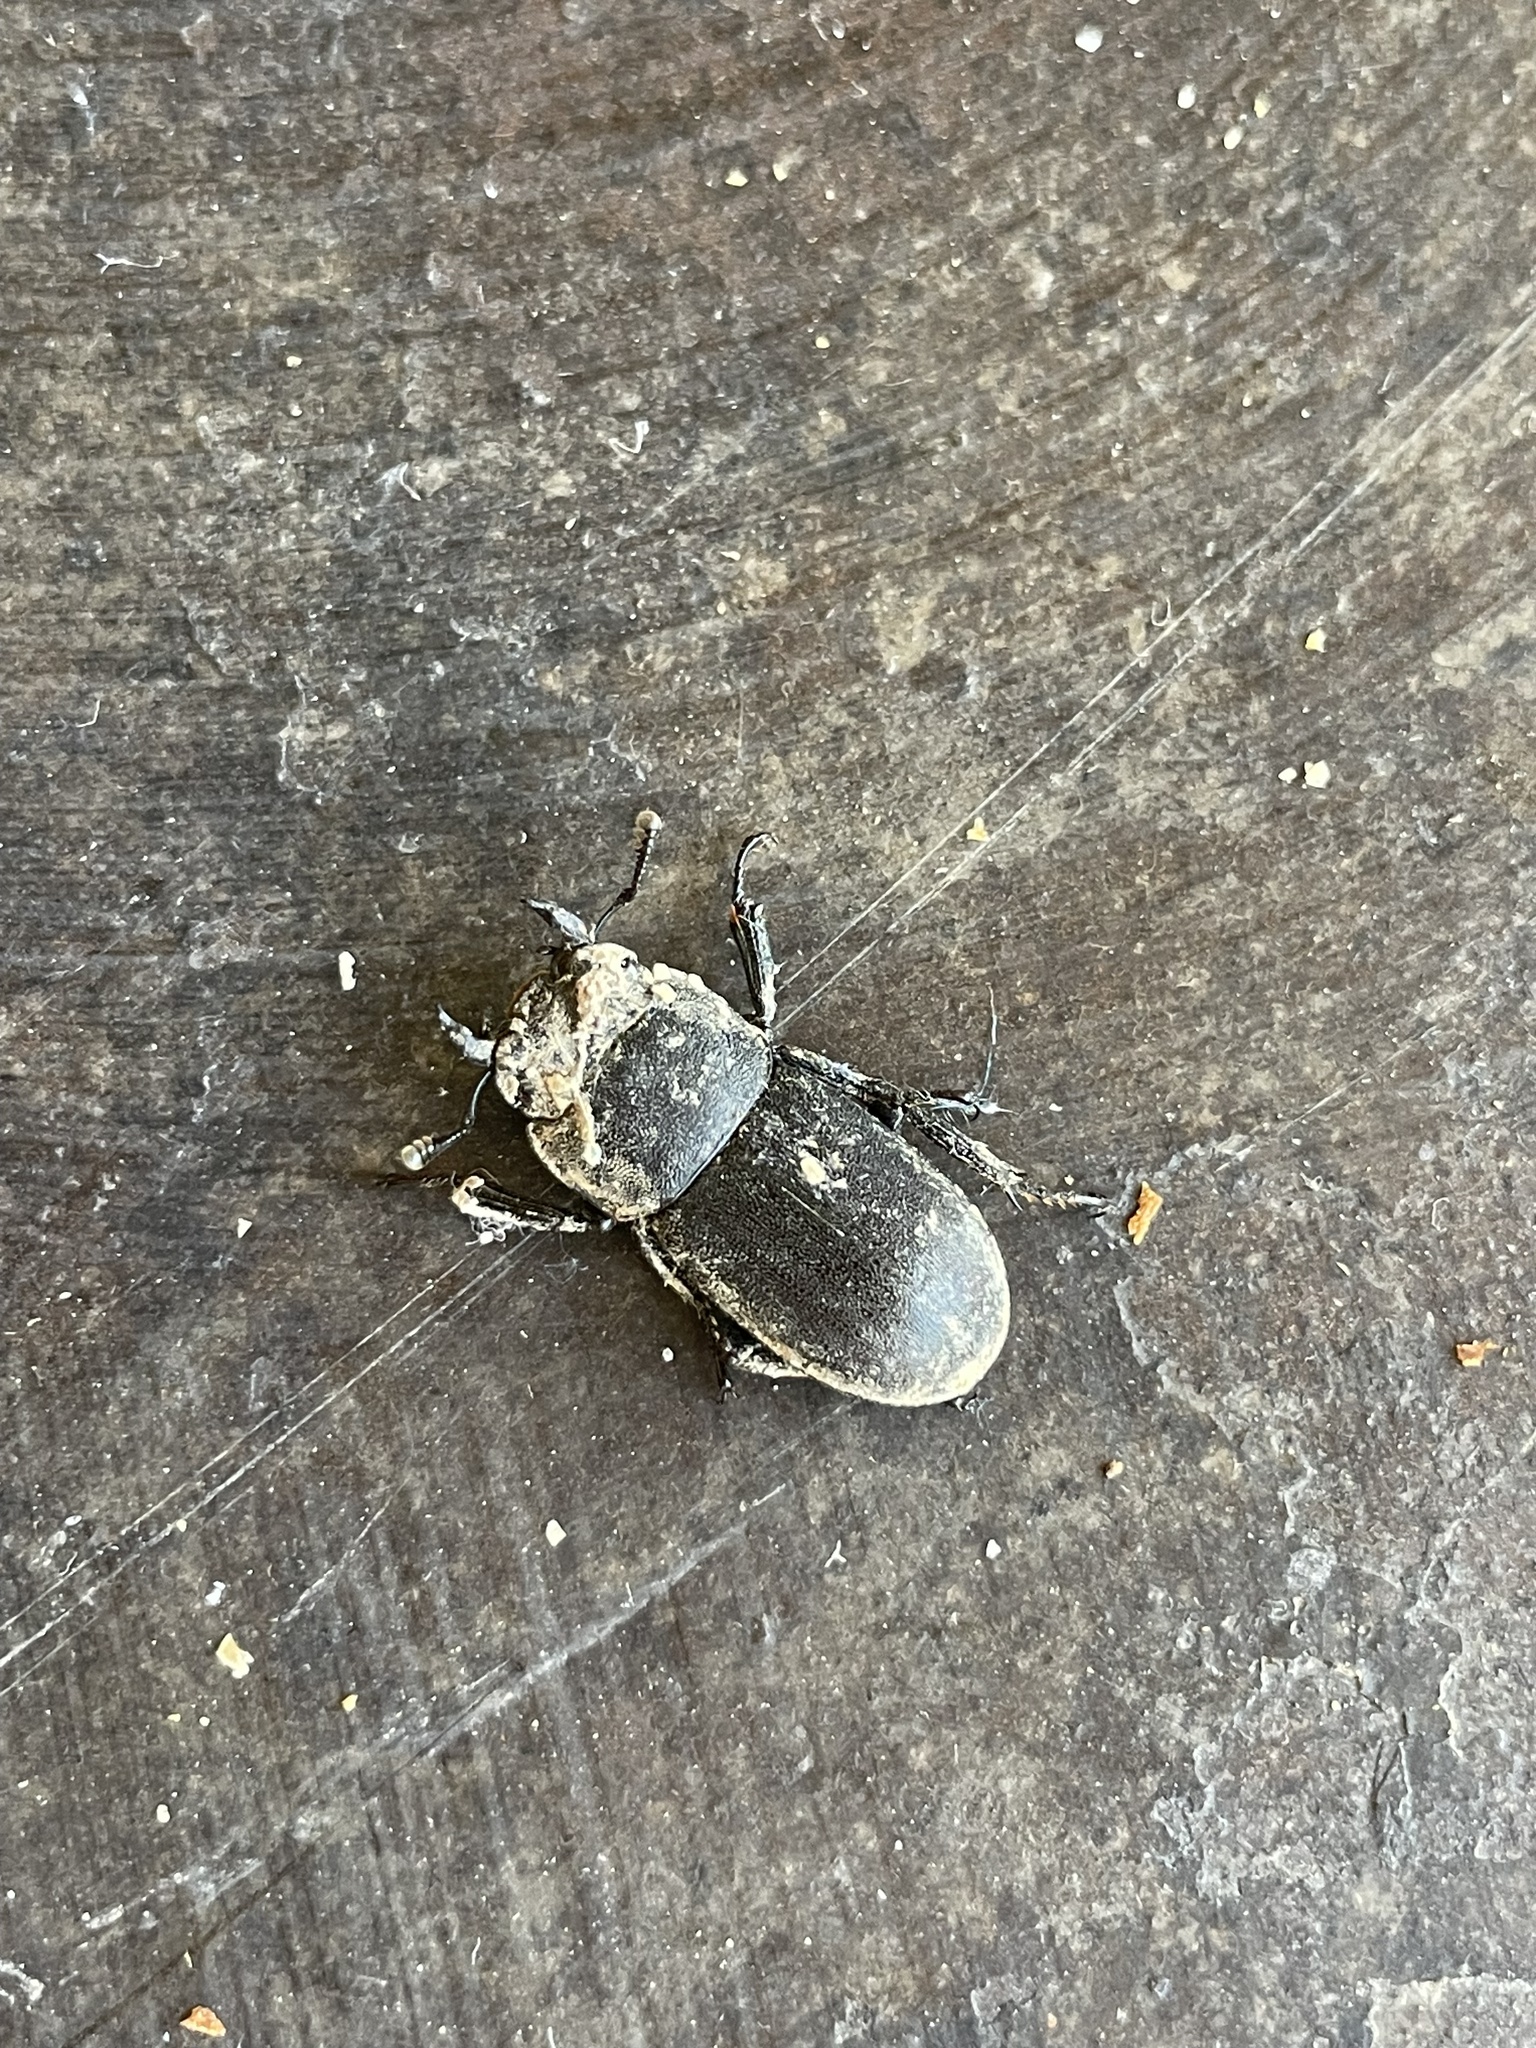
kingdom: Animalia
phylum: Arthropoda
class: Insecta
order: Coleoptera
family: Lucanidae
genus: Dorcus
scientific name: Dorcus parallelipipedus
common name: Lesser stag beetle
